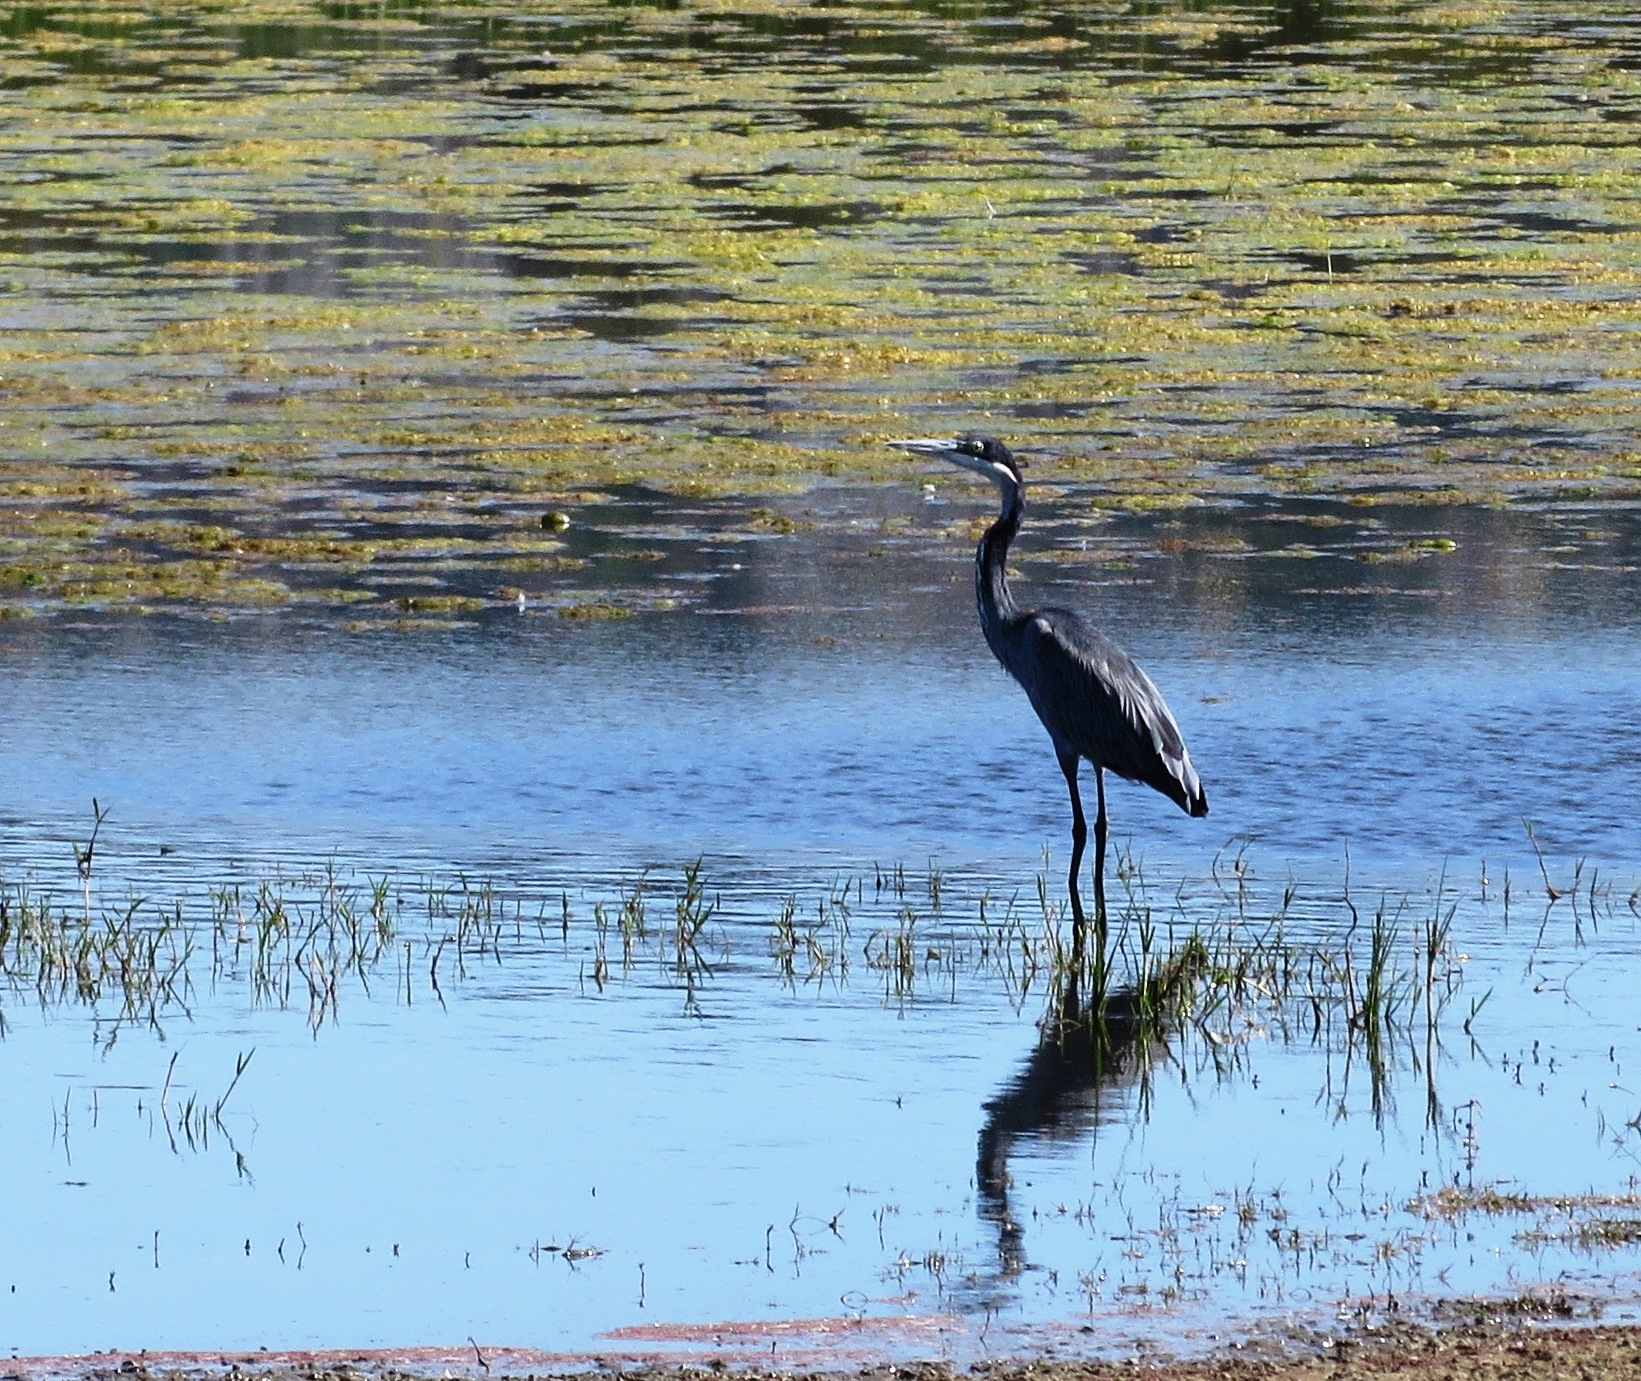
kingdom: Animalia
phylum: Chordata
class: Aves
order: Pelecaniformes
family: Ardeidae
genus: Ardea
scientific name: Ardea melanocephala
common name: Black-headed heron
